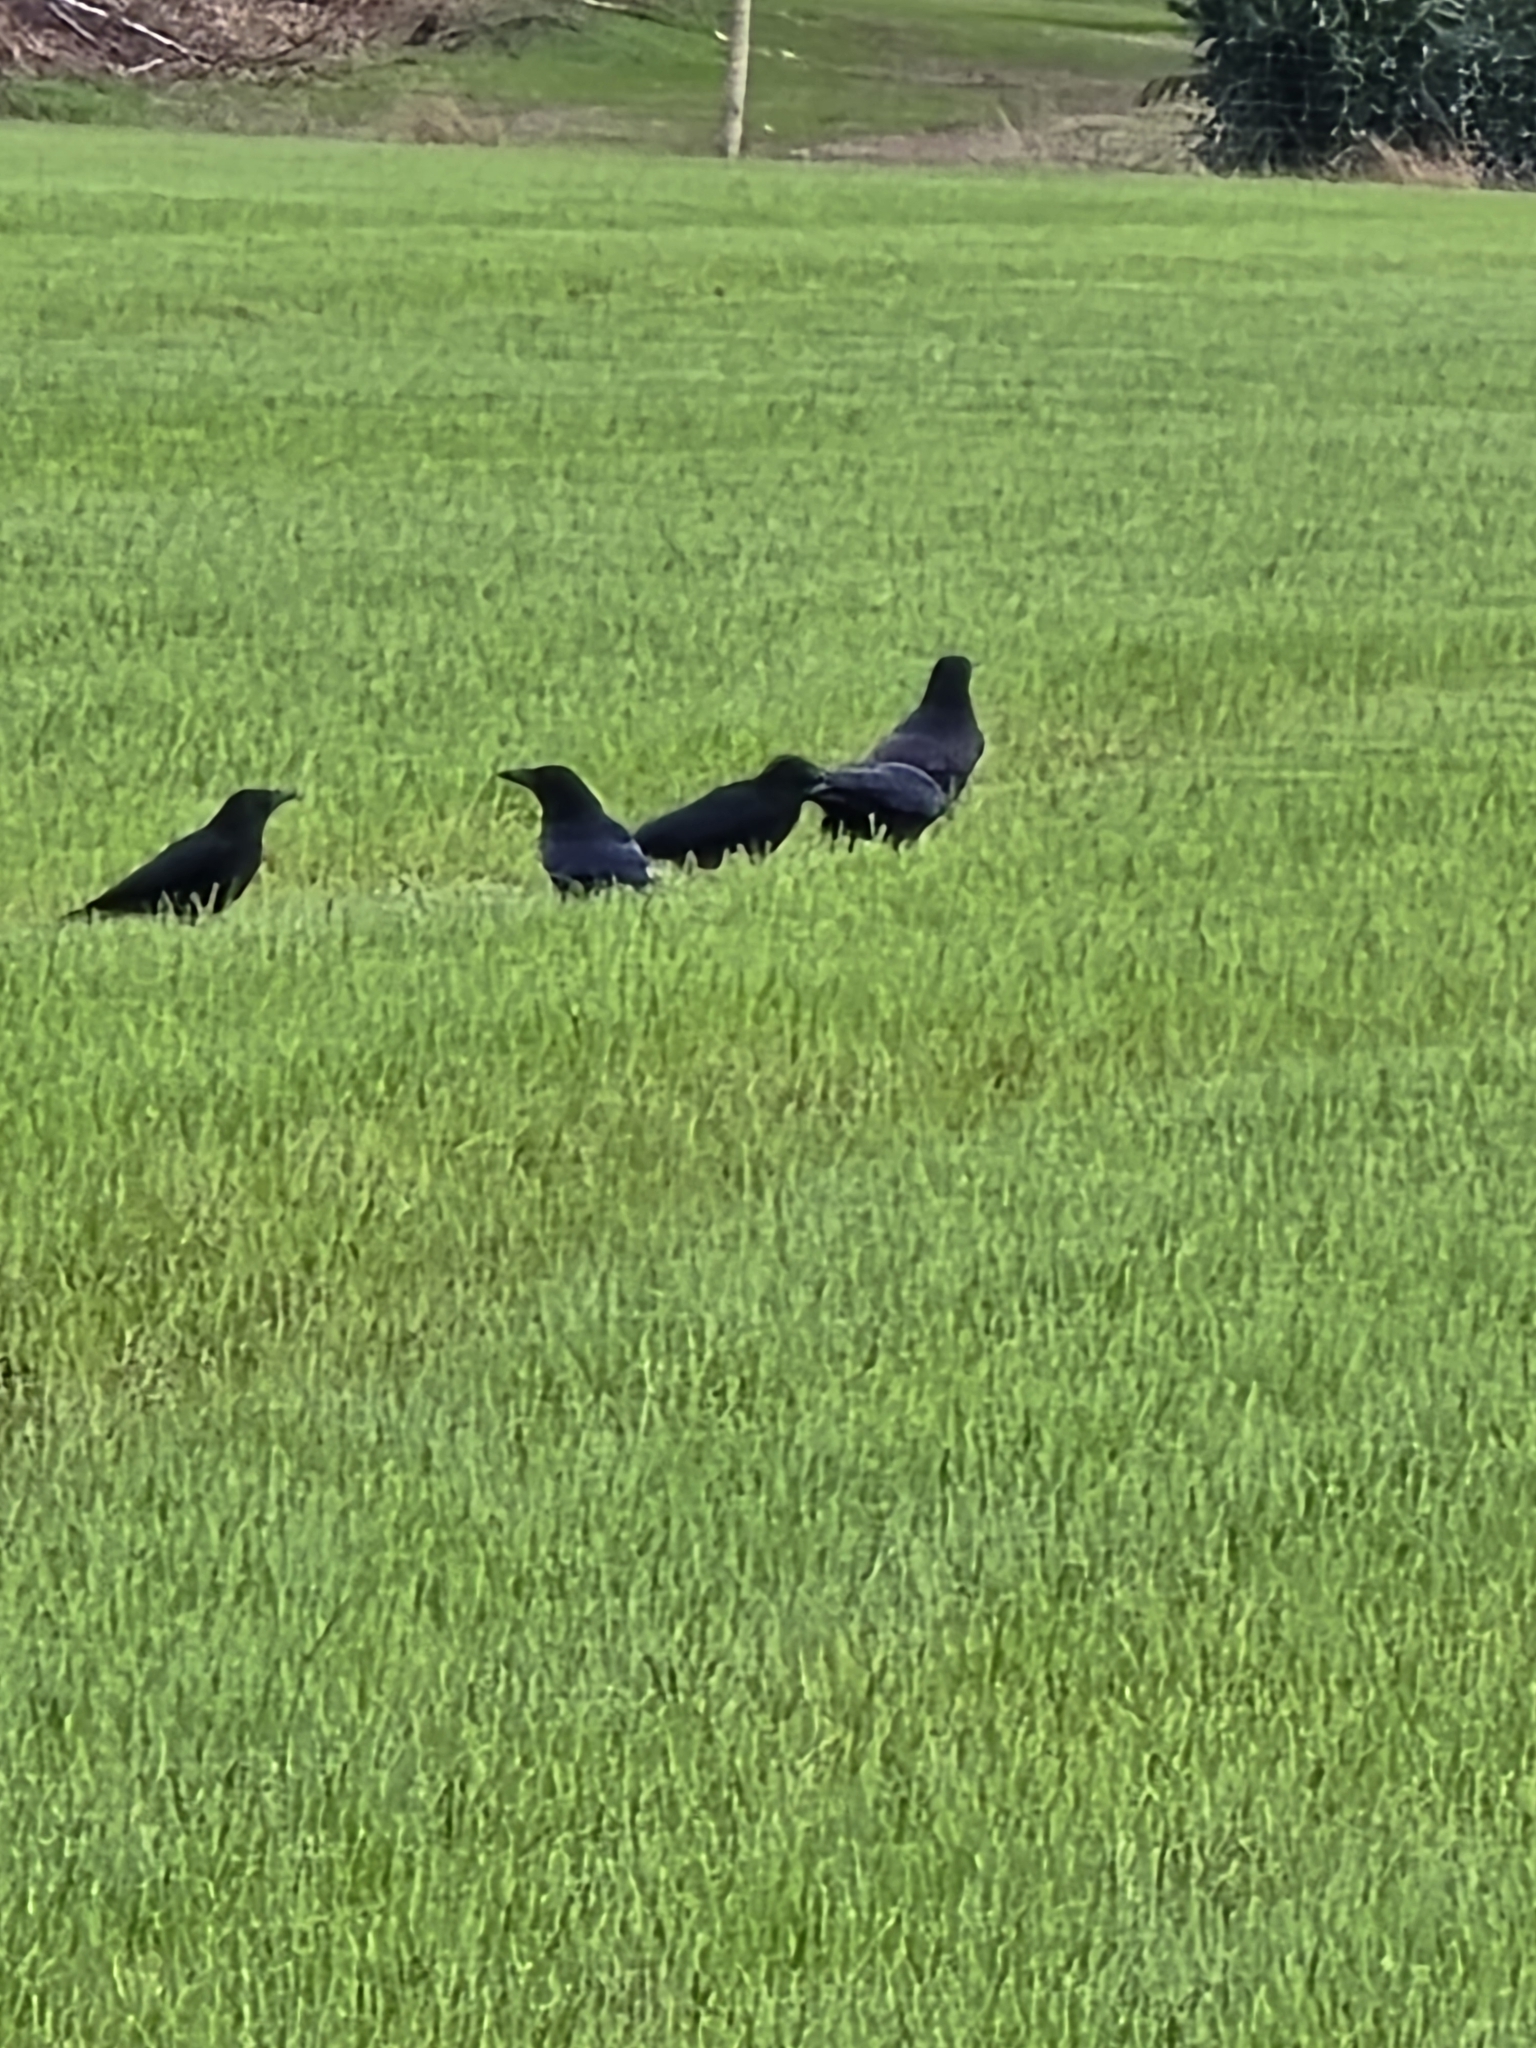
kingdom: Animalia
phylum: Chordata
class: Aves
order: Passeriformes
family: Corvidae
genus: Corvus
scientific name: Corvus corone
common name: Carrion crow
